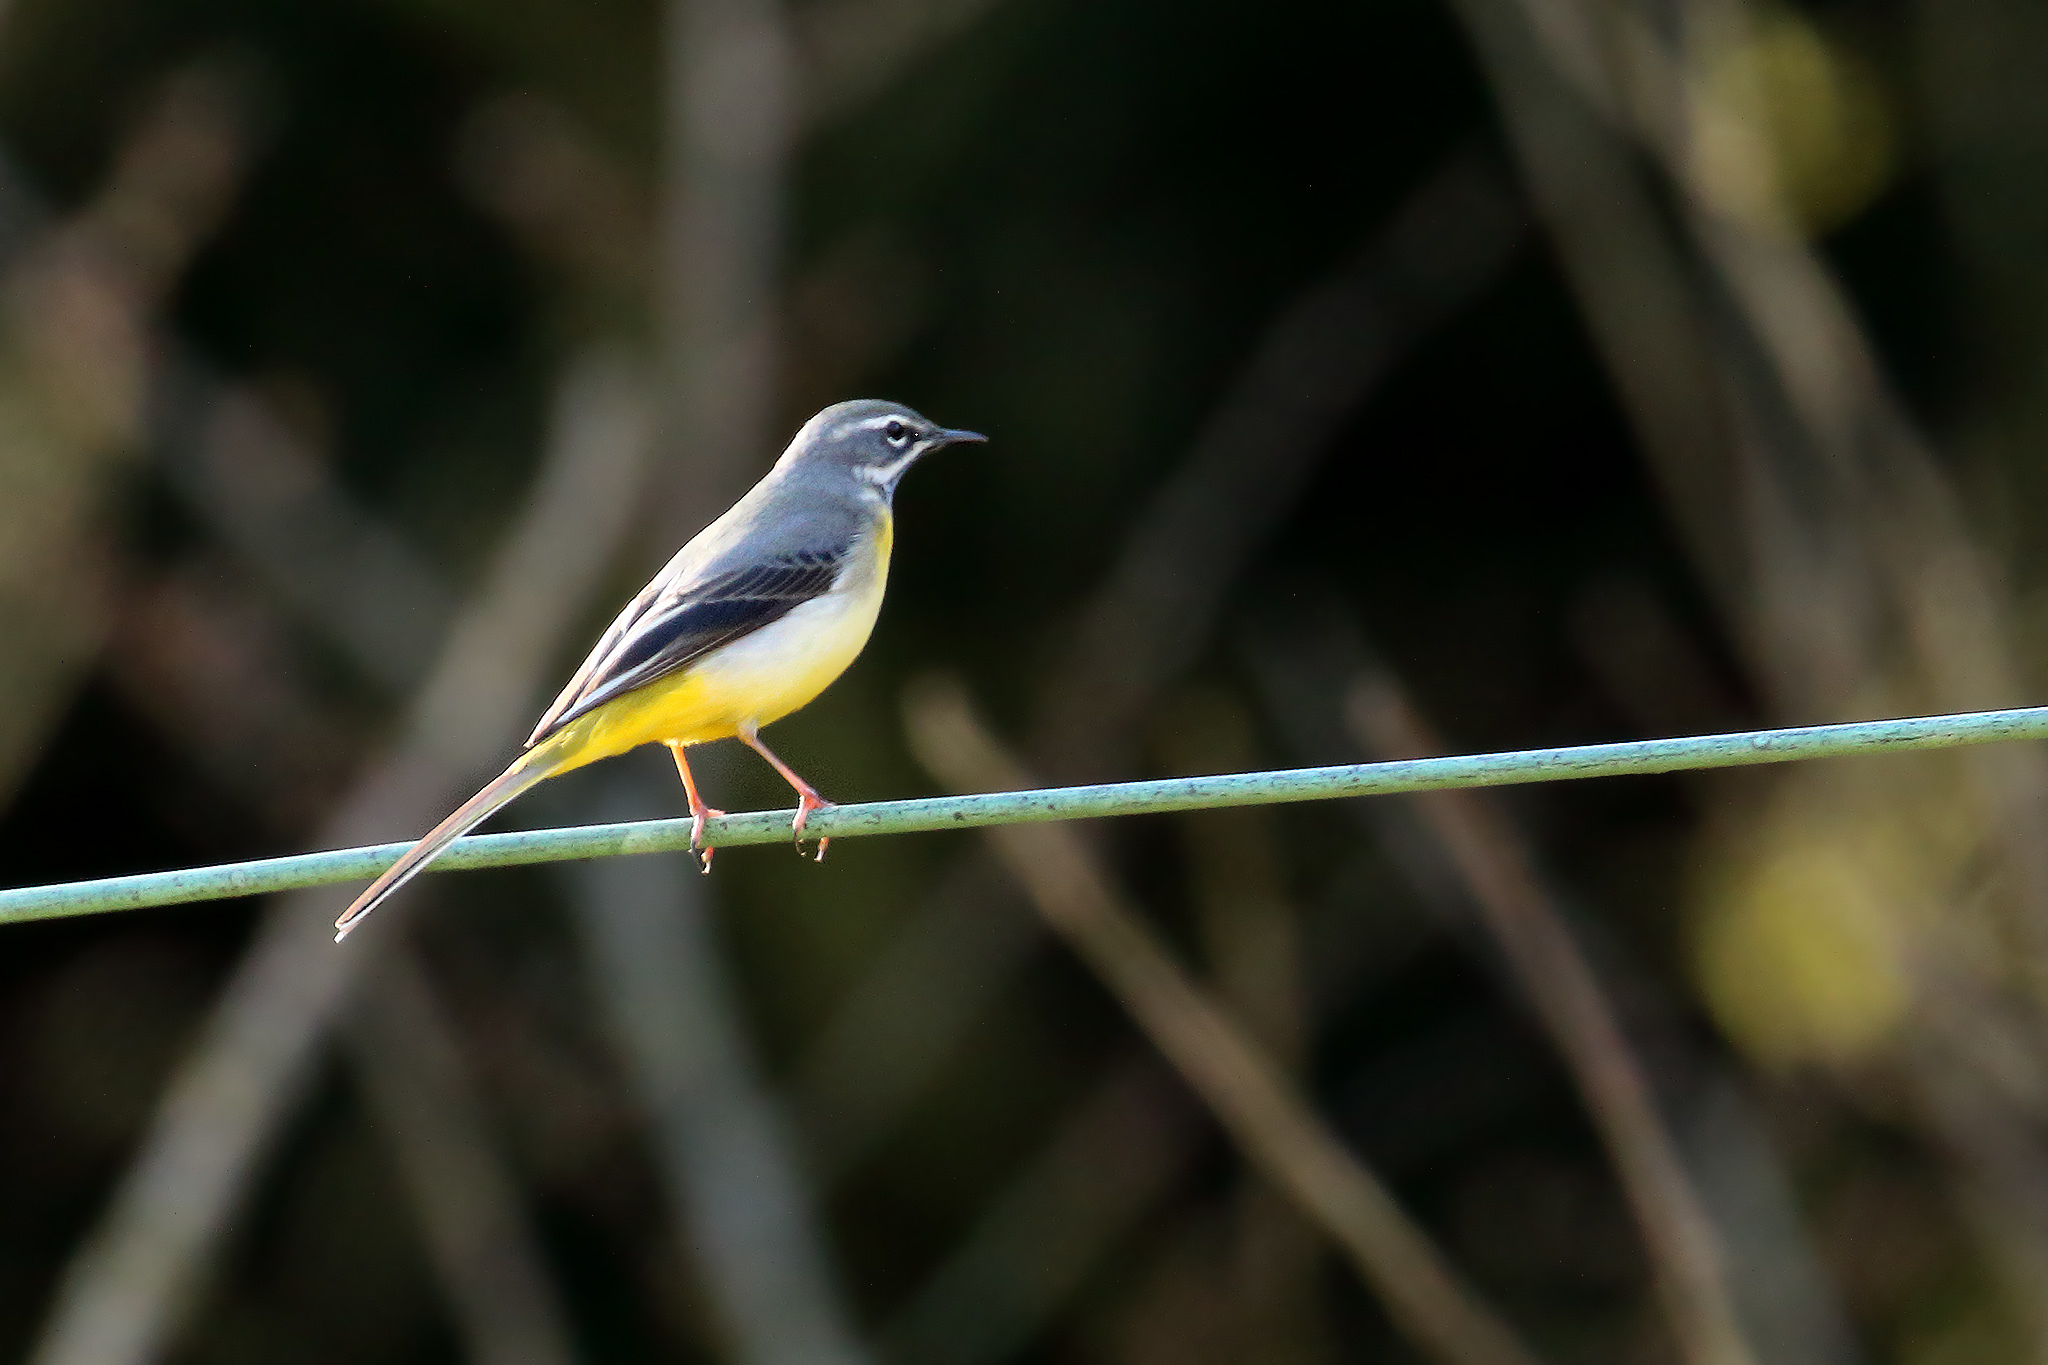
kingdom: Animalia
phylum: Chordata
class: Aves
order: Passeriformes
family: Motacillidae
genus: Motacilla
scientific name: Motacilla cinerea
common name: Grey wagtail
